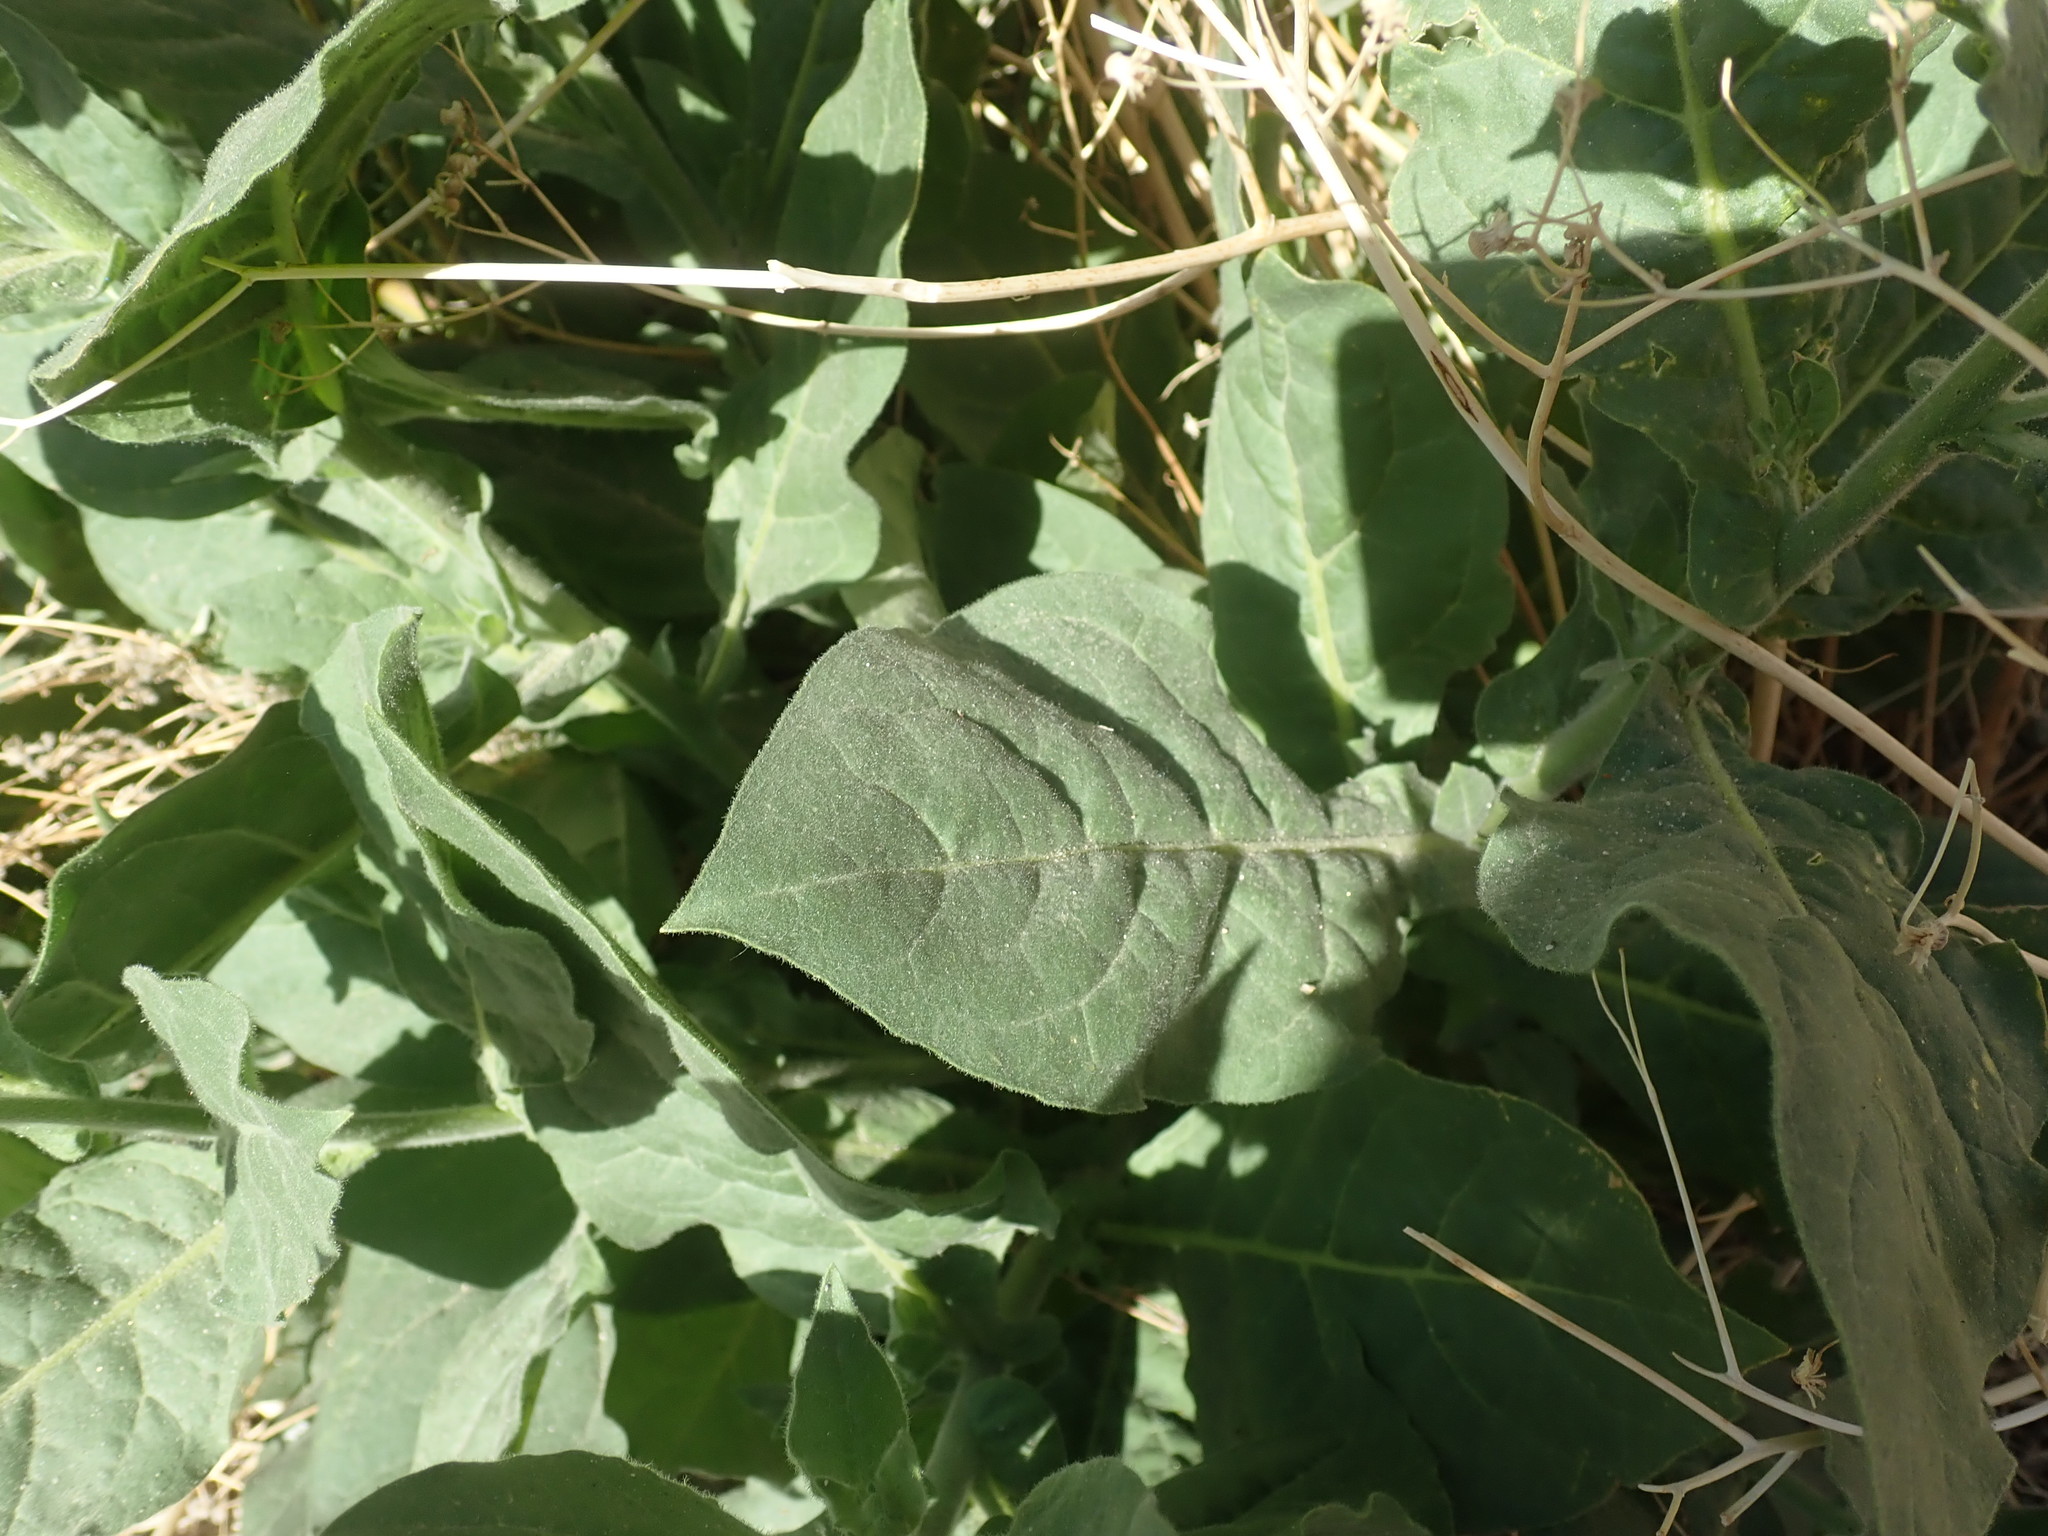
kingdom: Plantae
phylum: Tracheophyta
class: Magnoliopsida
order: Solanales
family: Solanaceae
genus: Nicotiana
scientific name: Nicotiana obtusifolia
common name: Desert tobacco
